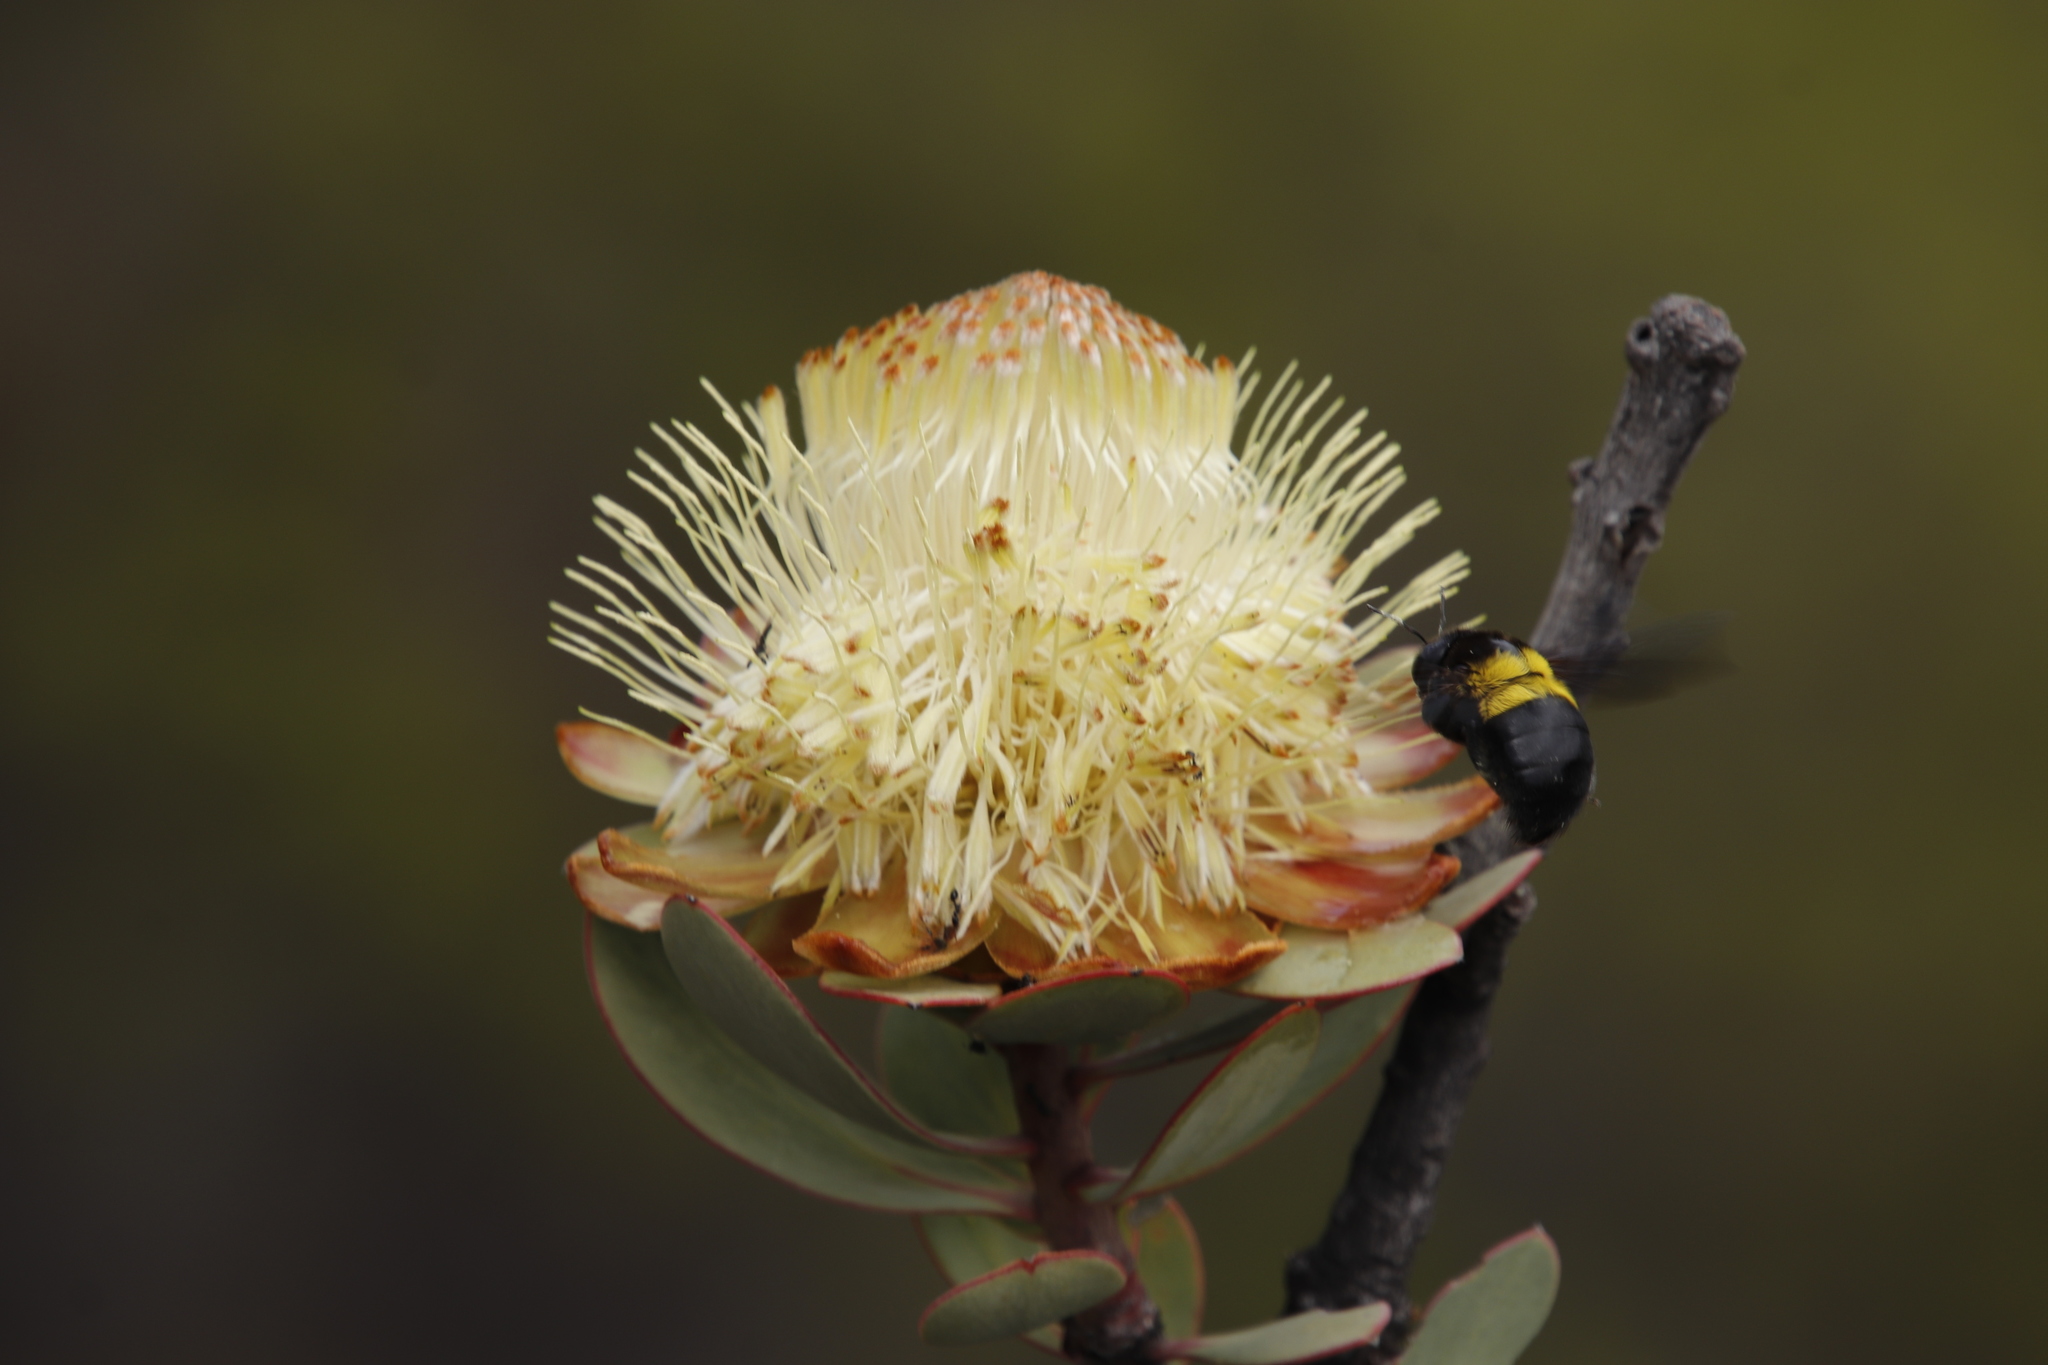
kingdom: Plantae
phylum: Tracheophyta
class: Magnoliopsida
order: Proteales
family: Proteaceae
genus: Protea
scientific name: Protea glabra
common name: Chestnut sugarbush
